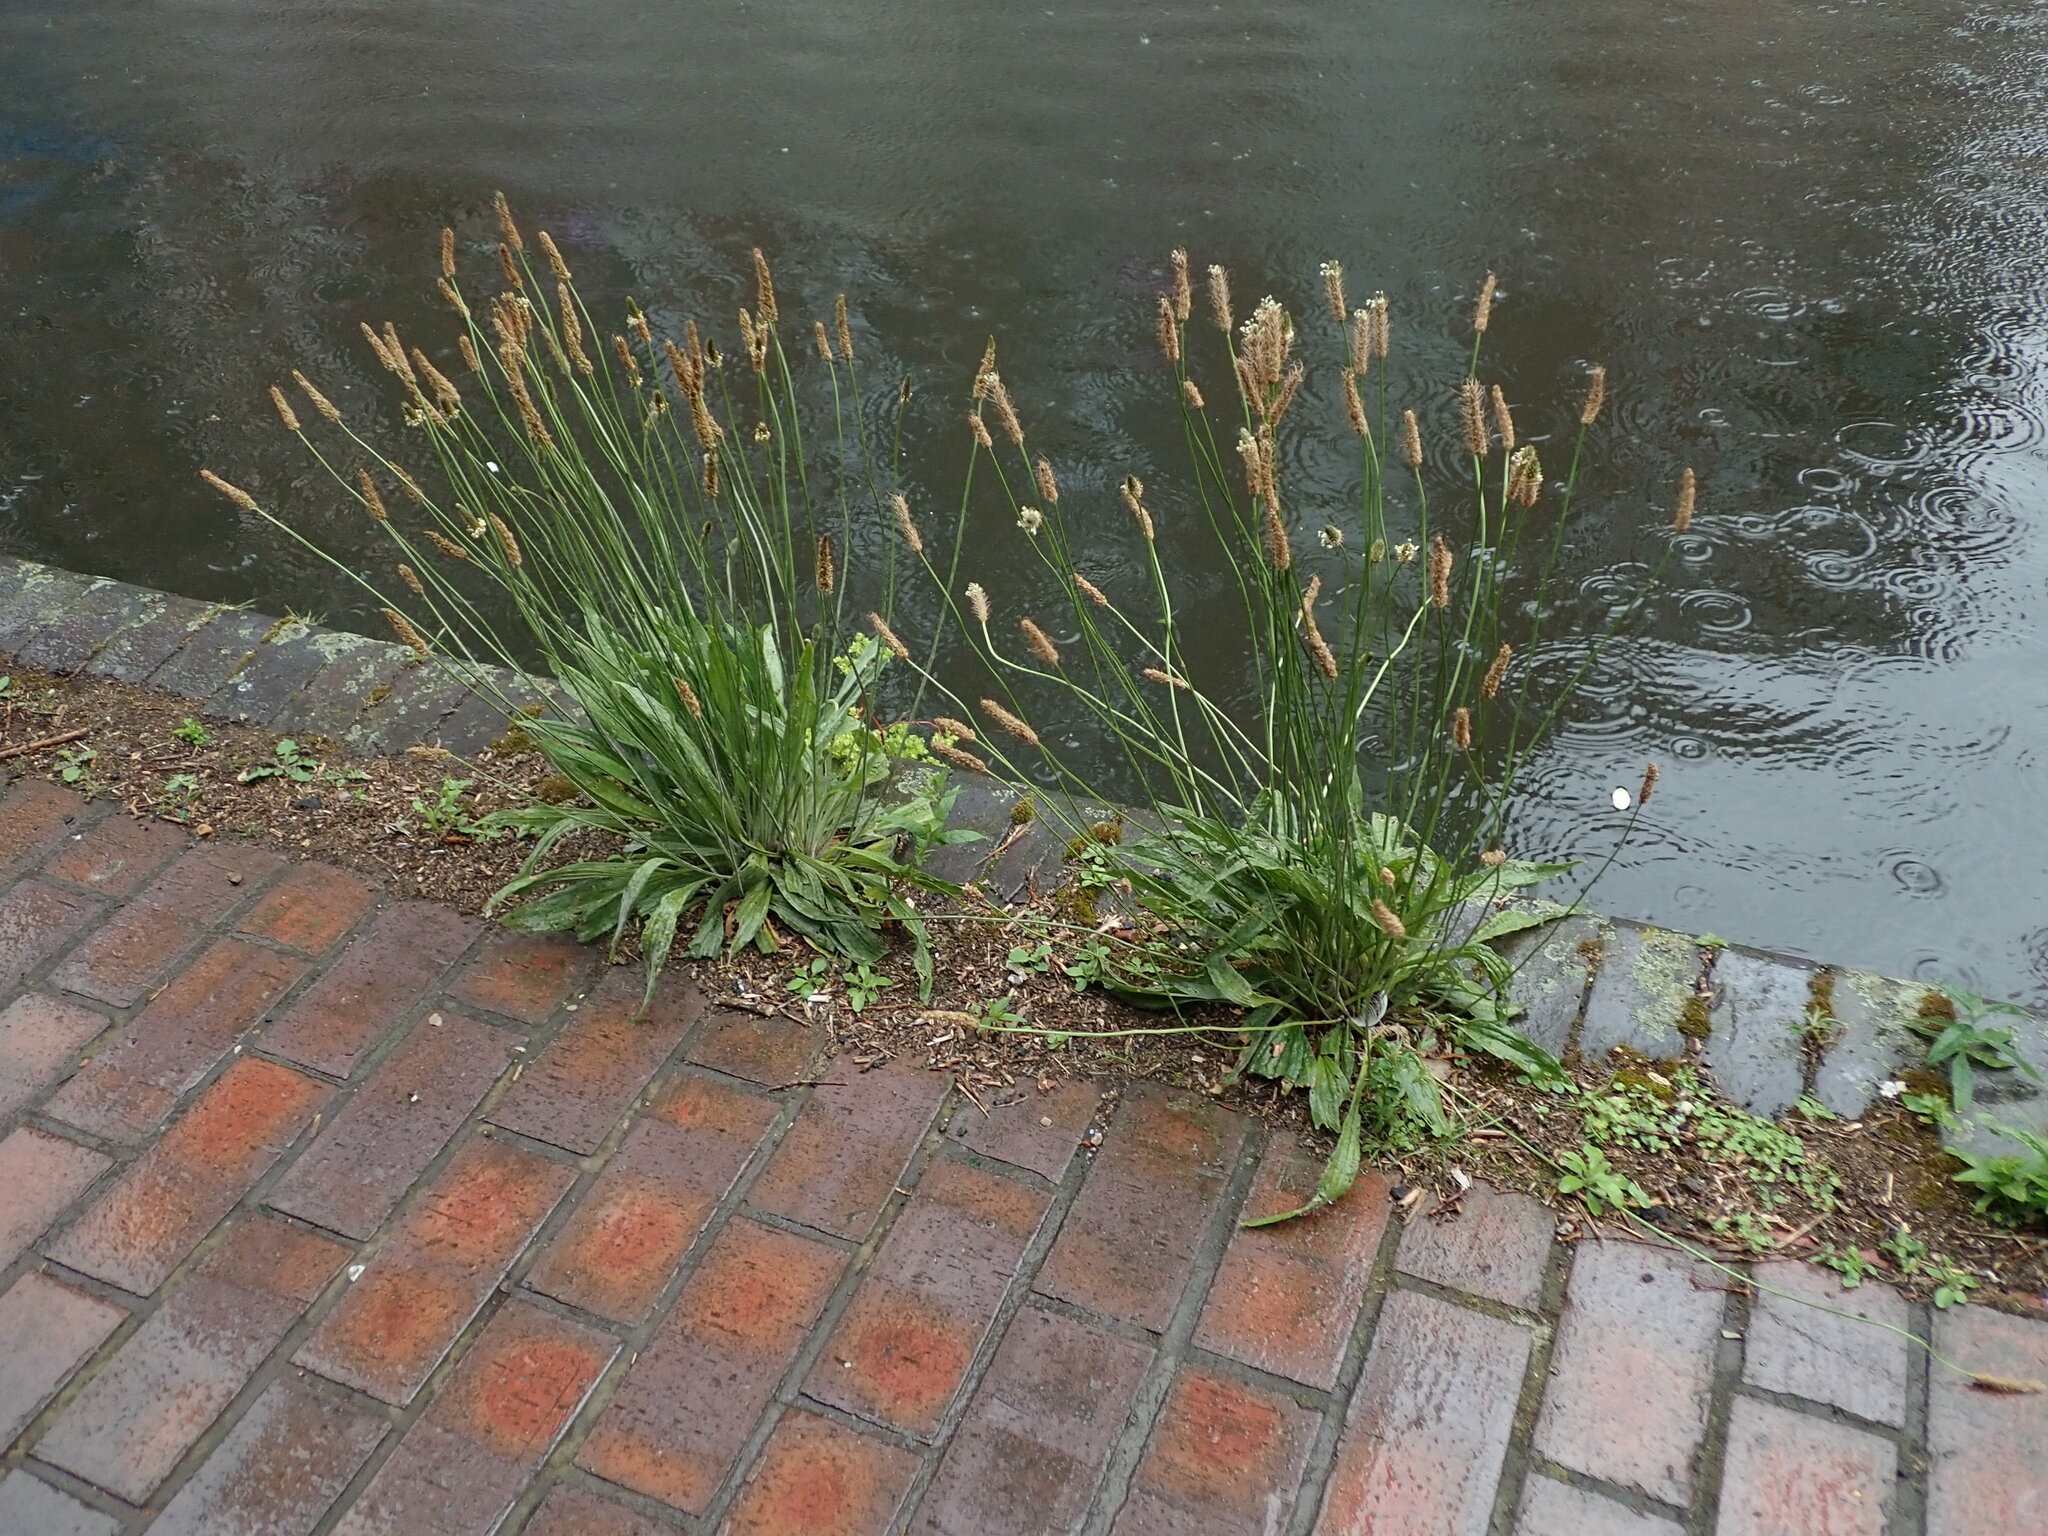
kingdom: Plantae
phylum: Tracheophyta
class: Magnoliopsida
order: Lamiales
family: Plantaginaceae
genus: Plantago
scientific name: Plantago lanceolata
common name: Ribwort plantain
